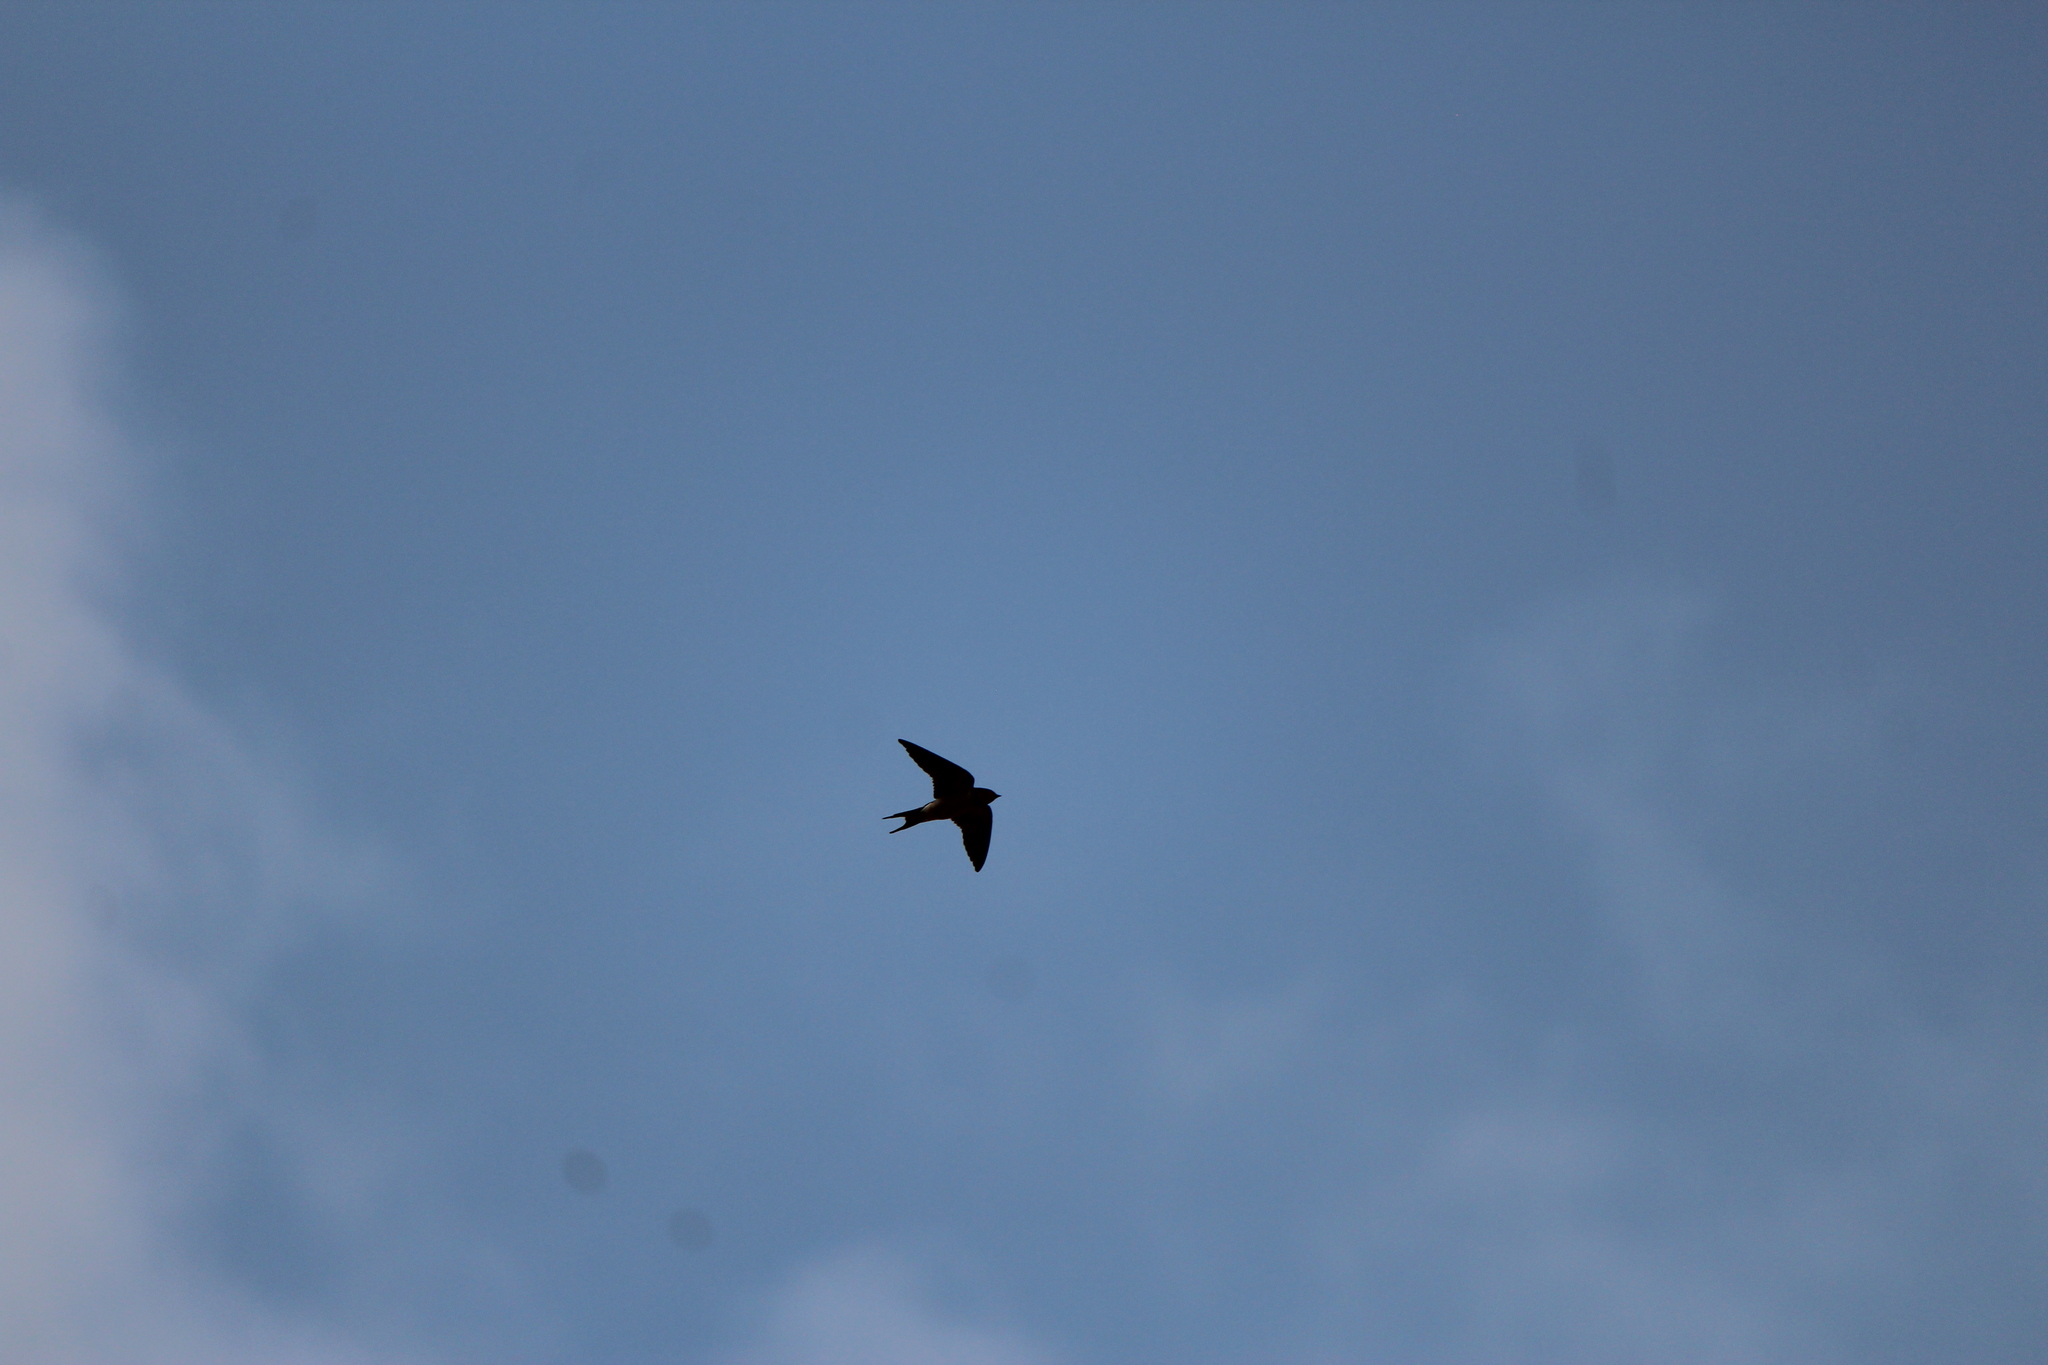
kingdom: Animalia
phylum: Chordata
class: Aves
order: Passeriformes
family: Hirundinidae
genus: Hirundo
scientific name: Hirundo rustica
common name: Barn swallow
